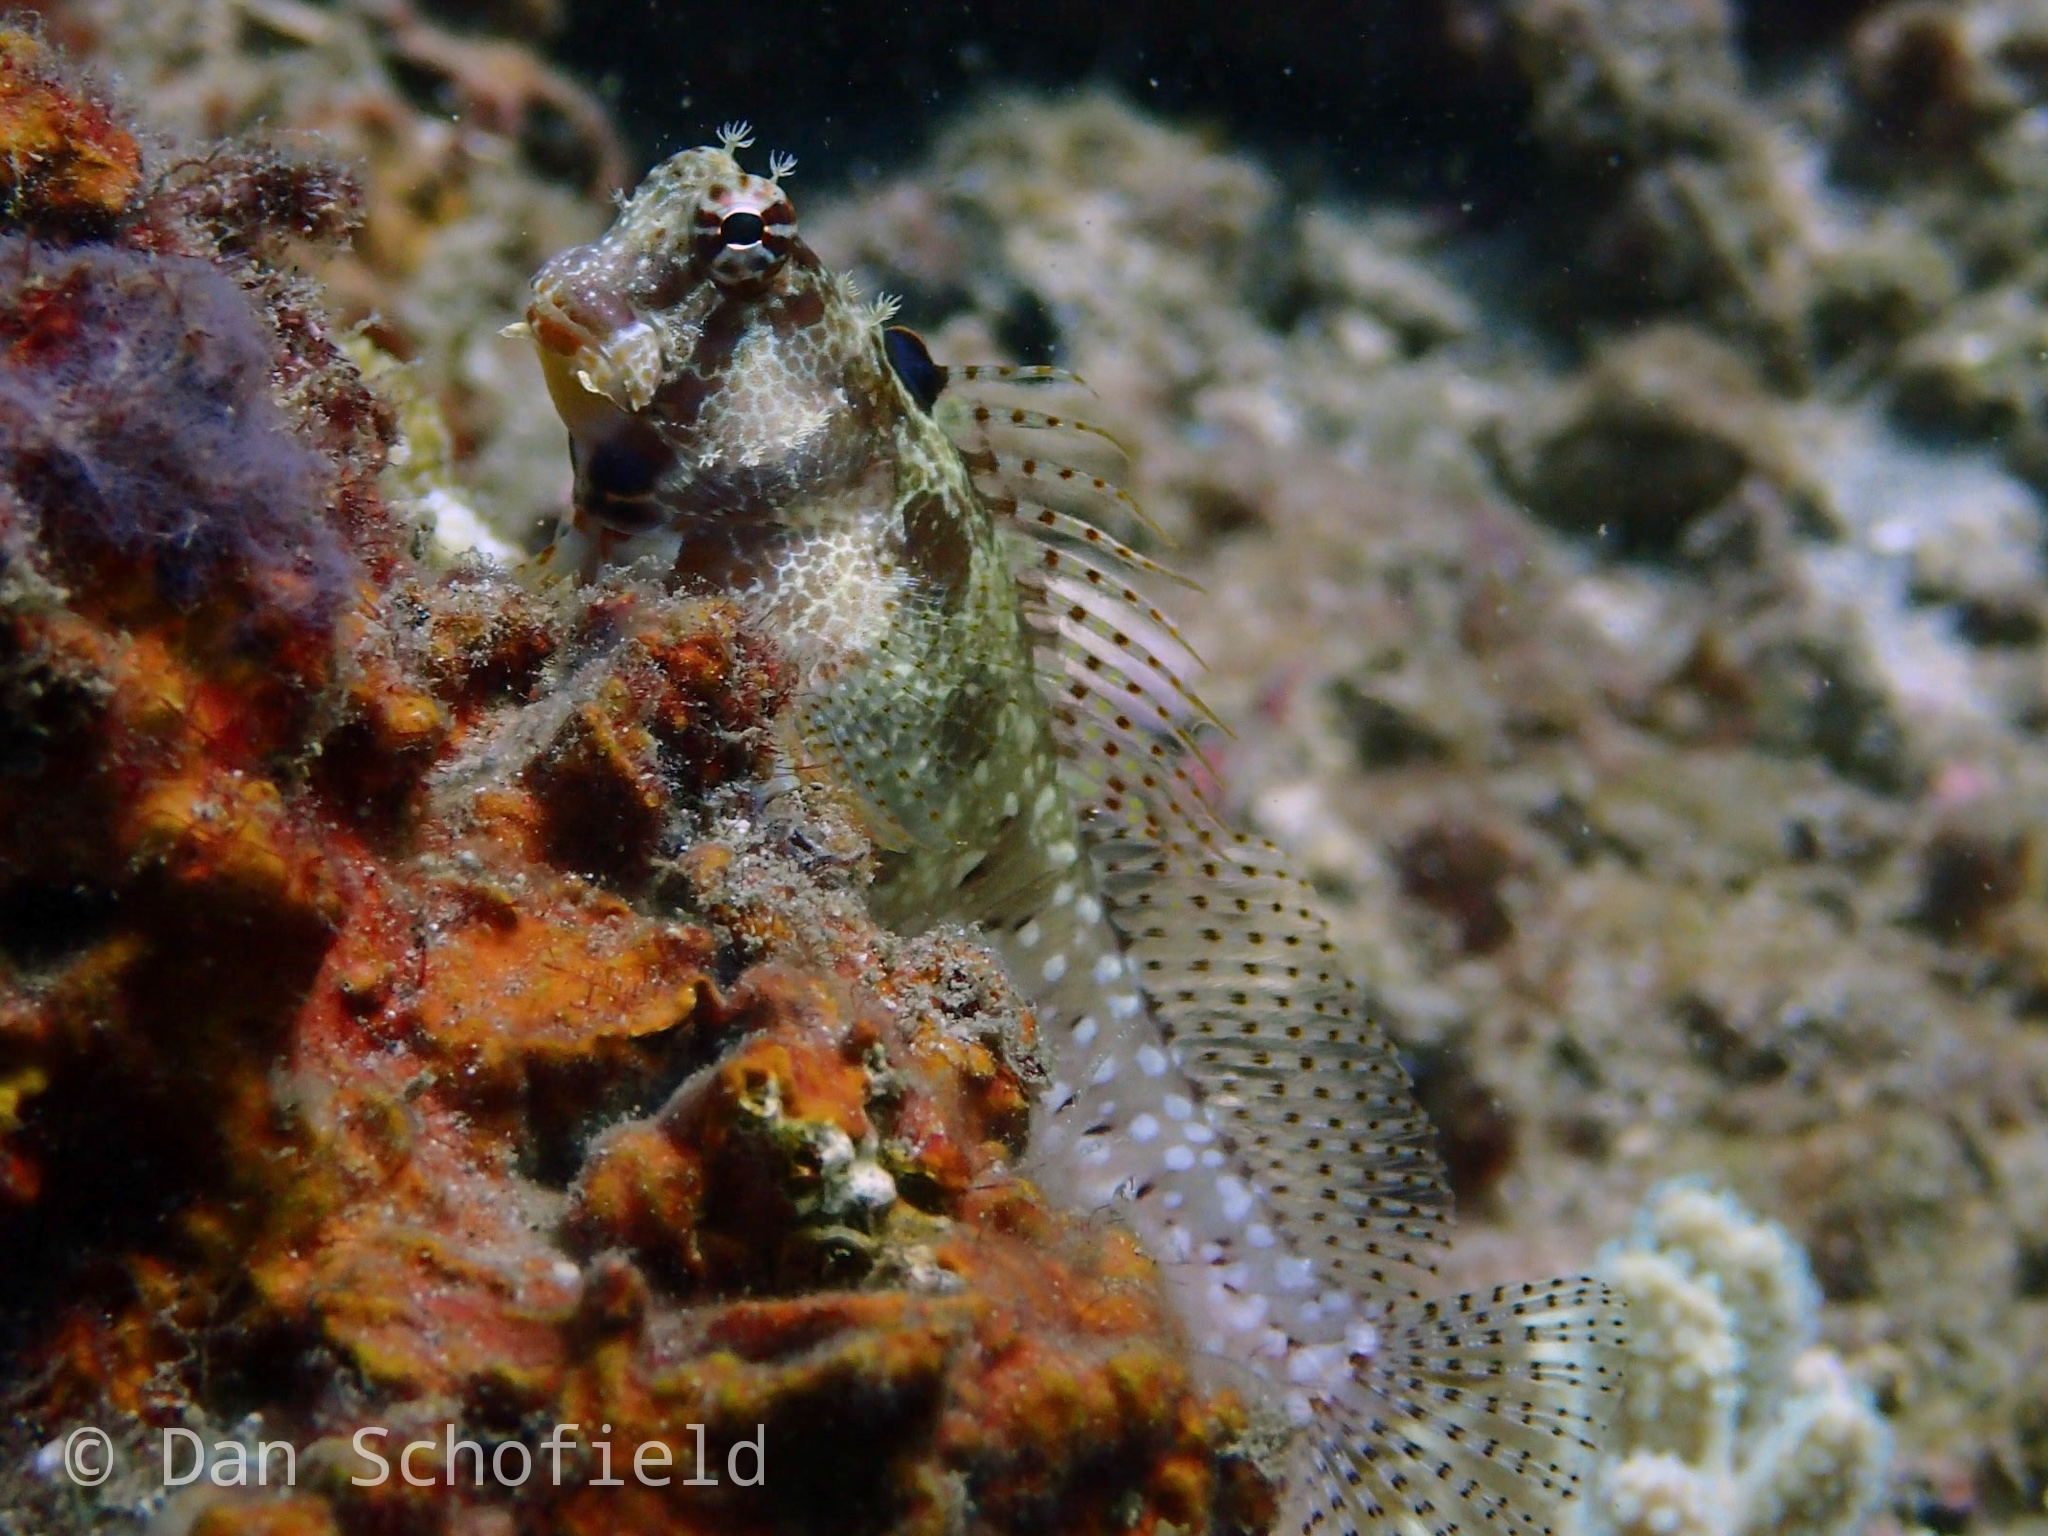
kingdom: Animalia
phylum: Chordata
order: Perciformes
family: Blenniidae
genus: Crossosalarias
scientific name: Crossosalarias macrospilus
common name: Triplespot blenny
